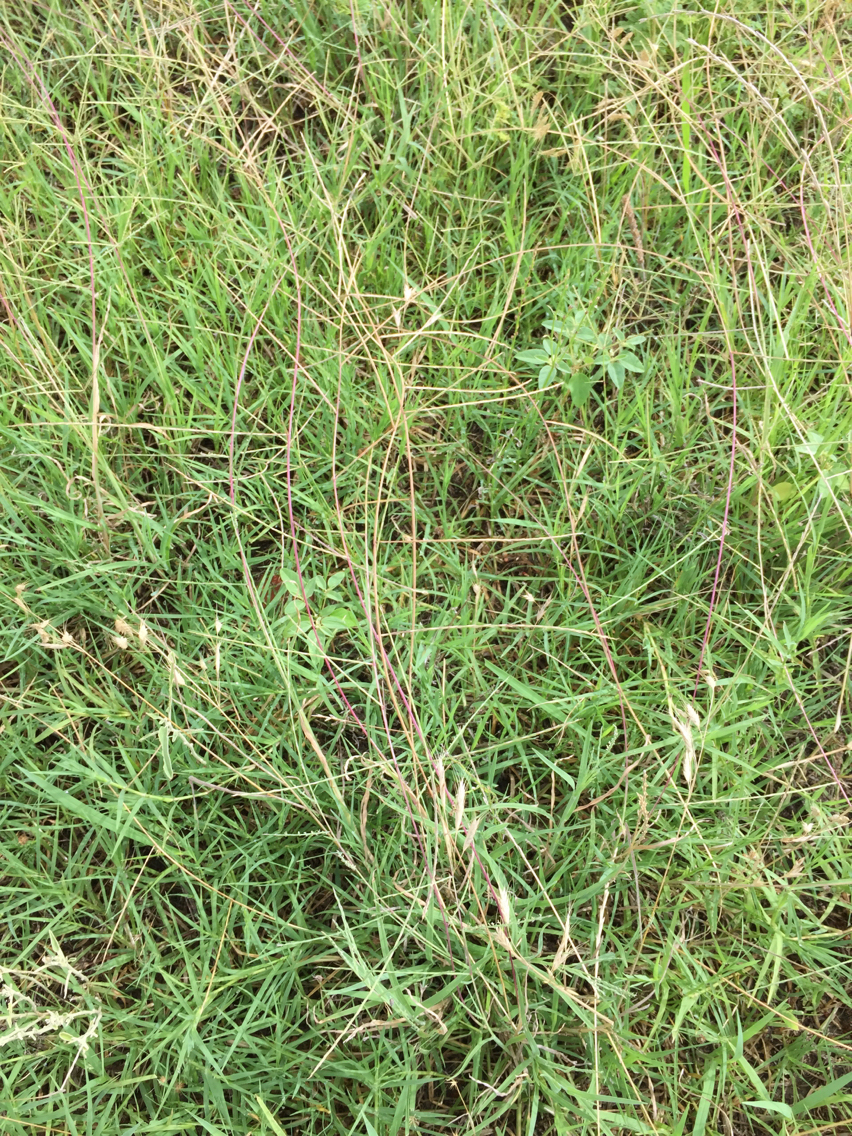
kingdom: Plantae
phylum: Tracheophyta
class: Liliopsida
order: Poales
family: Poaceae
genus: Muhlenbergia
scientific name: Muhlenbergia paniculata
